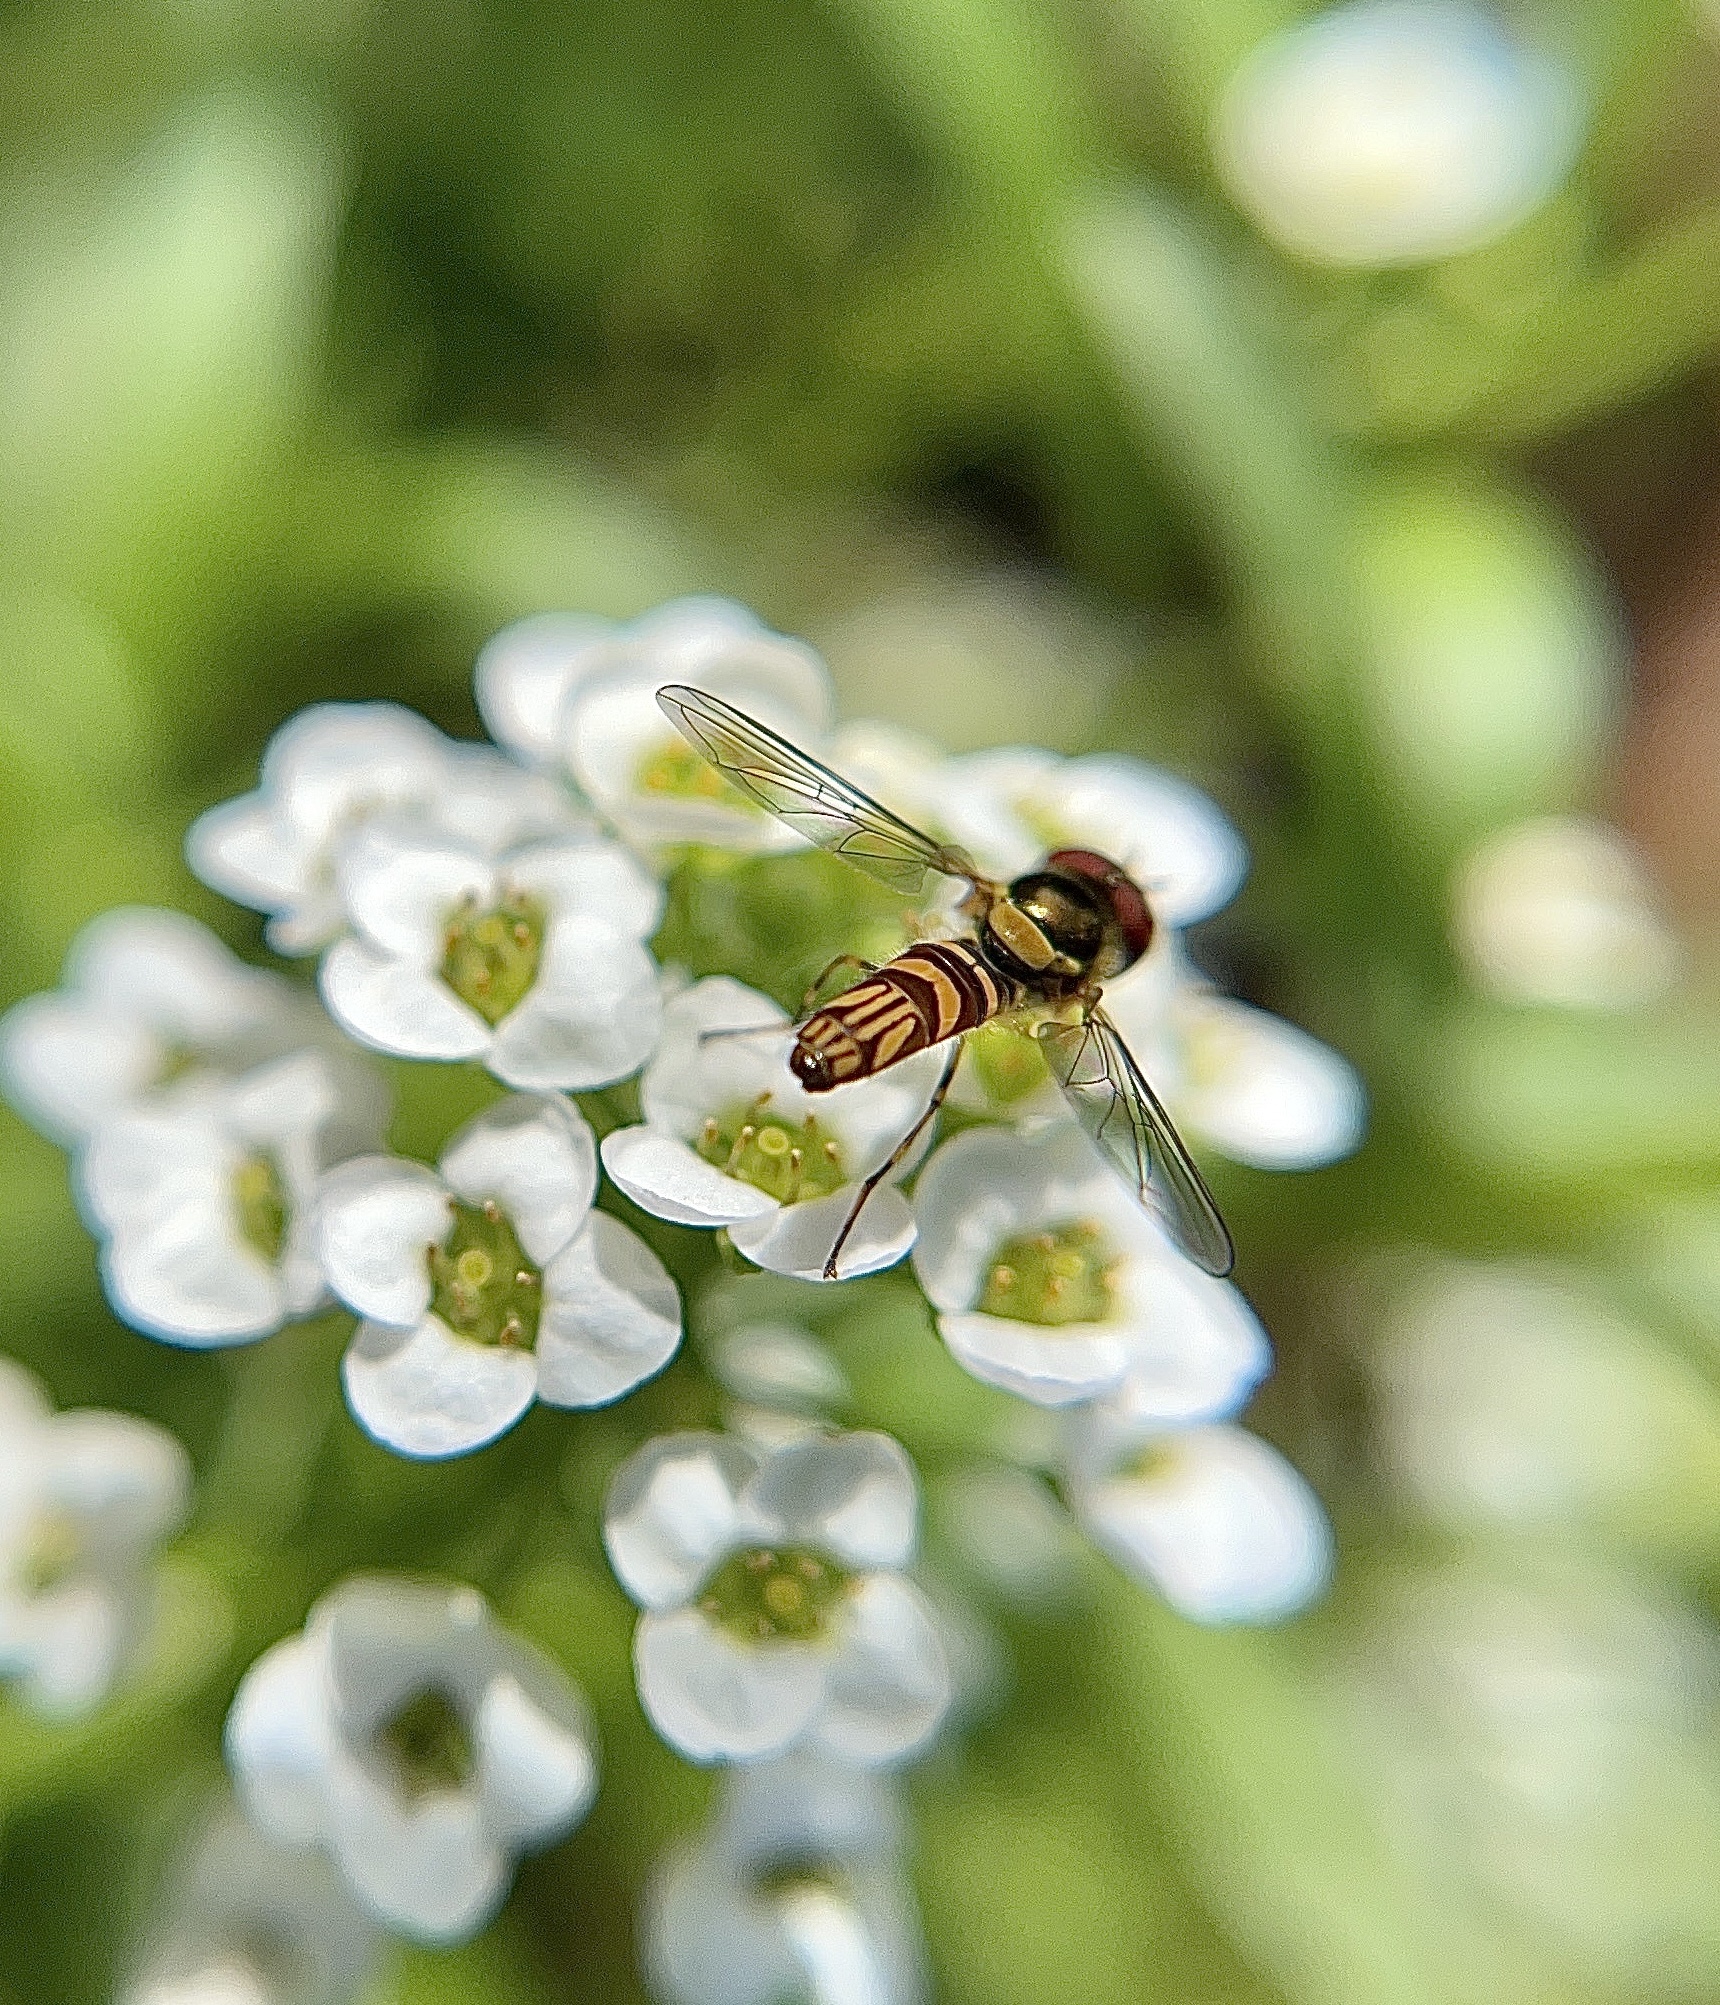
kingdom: Animalia
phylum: Arthropoda
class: Insecta
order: Diptera
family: Syrphidae
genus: Allograpta
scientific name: Allograpta obliqua
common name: Common oblique syrphid
